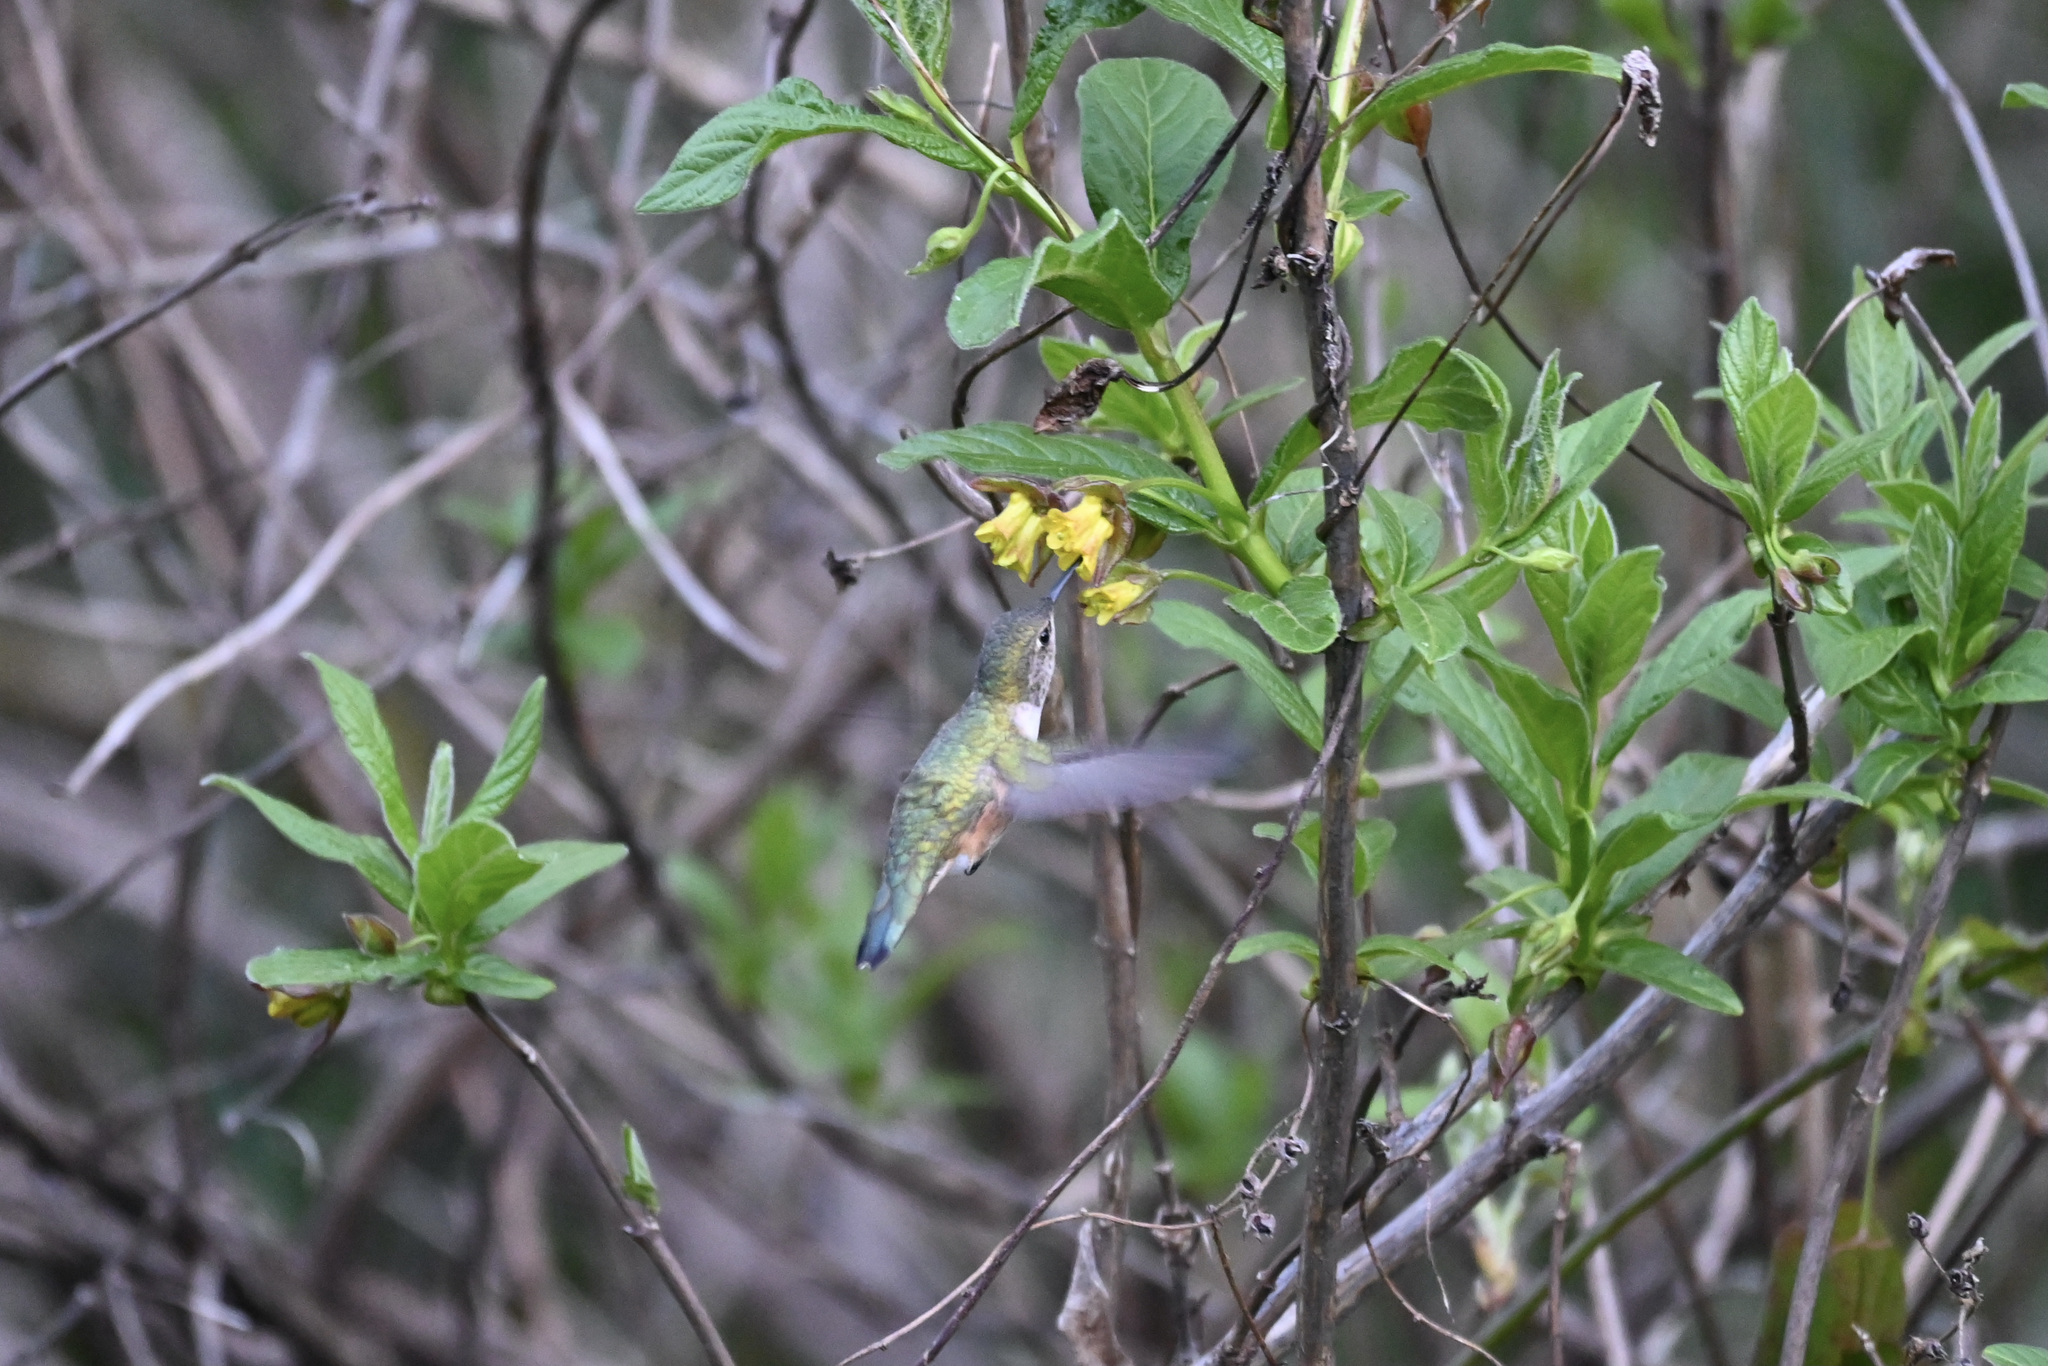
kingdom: Animalia
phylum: Chordata
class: Aves
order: Apodiformes
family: Trochilidae
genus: Selasphorus
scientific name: Selasphorus rufus
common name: Rufous hummingbird
